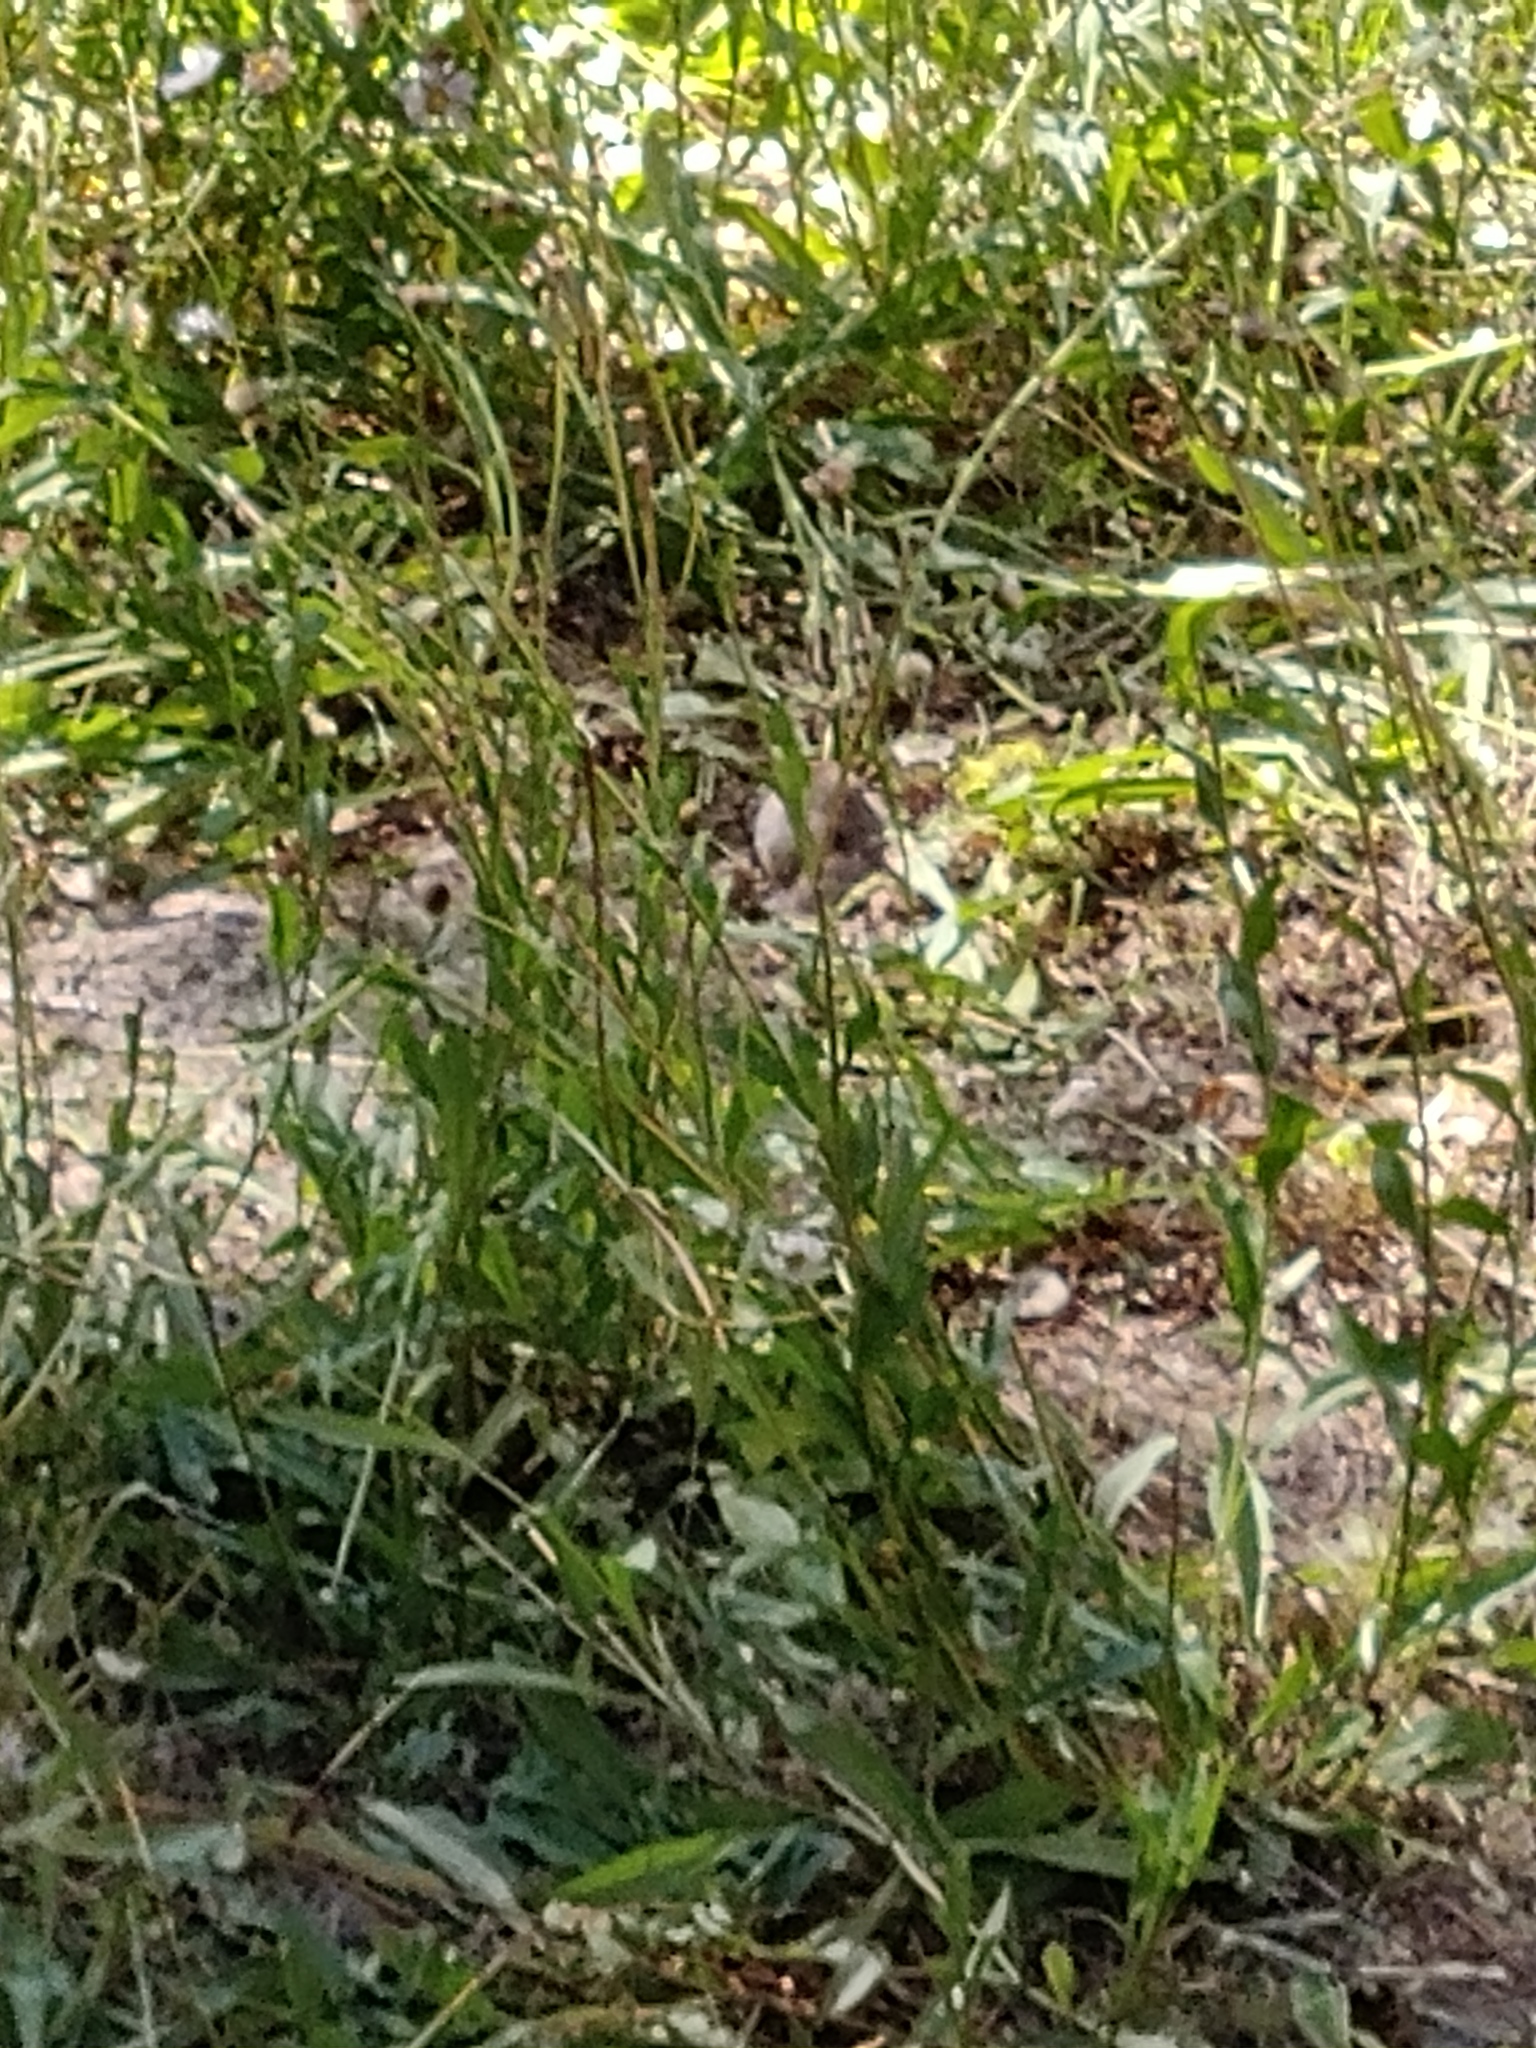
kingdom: Animalia
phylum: Chordata
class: Mammalia
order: Rodentia
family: Geomyidae
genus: Thomomys
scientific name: Thomomys bottae
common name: Botta's pocket gopher
